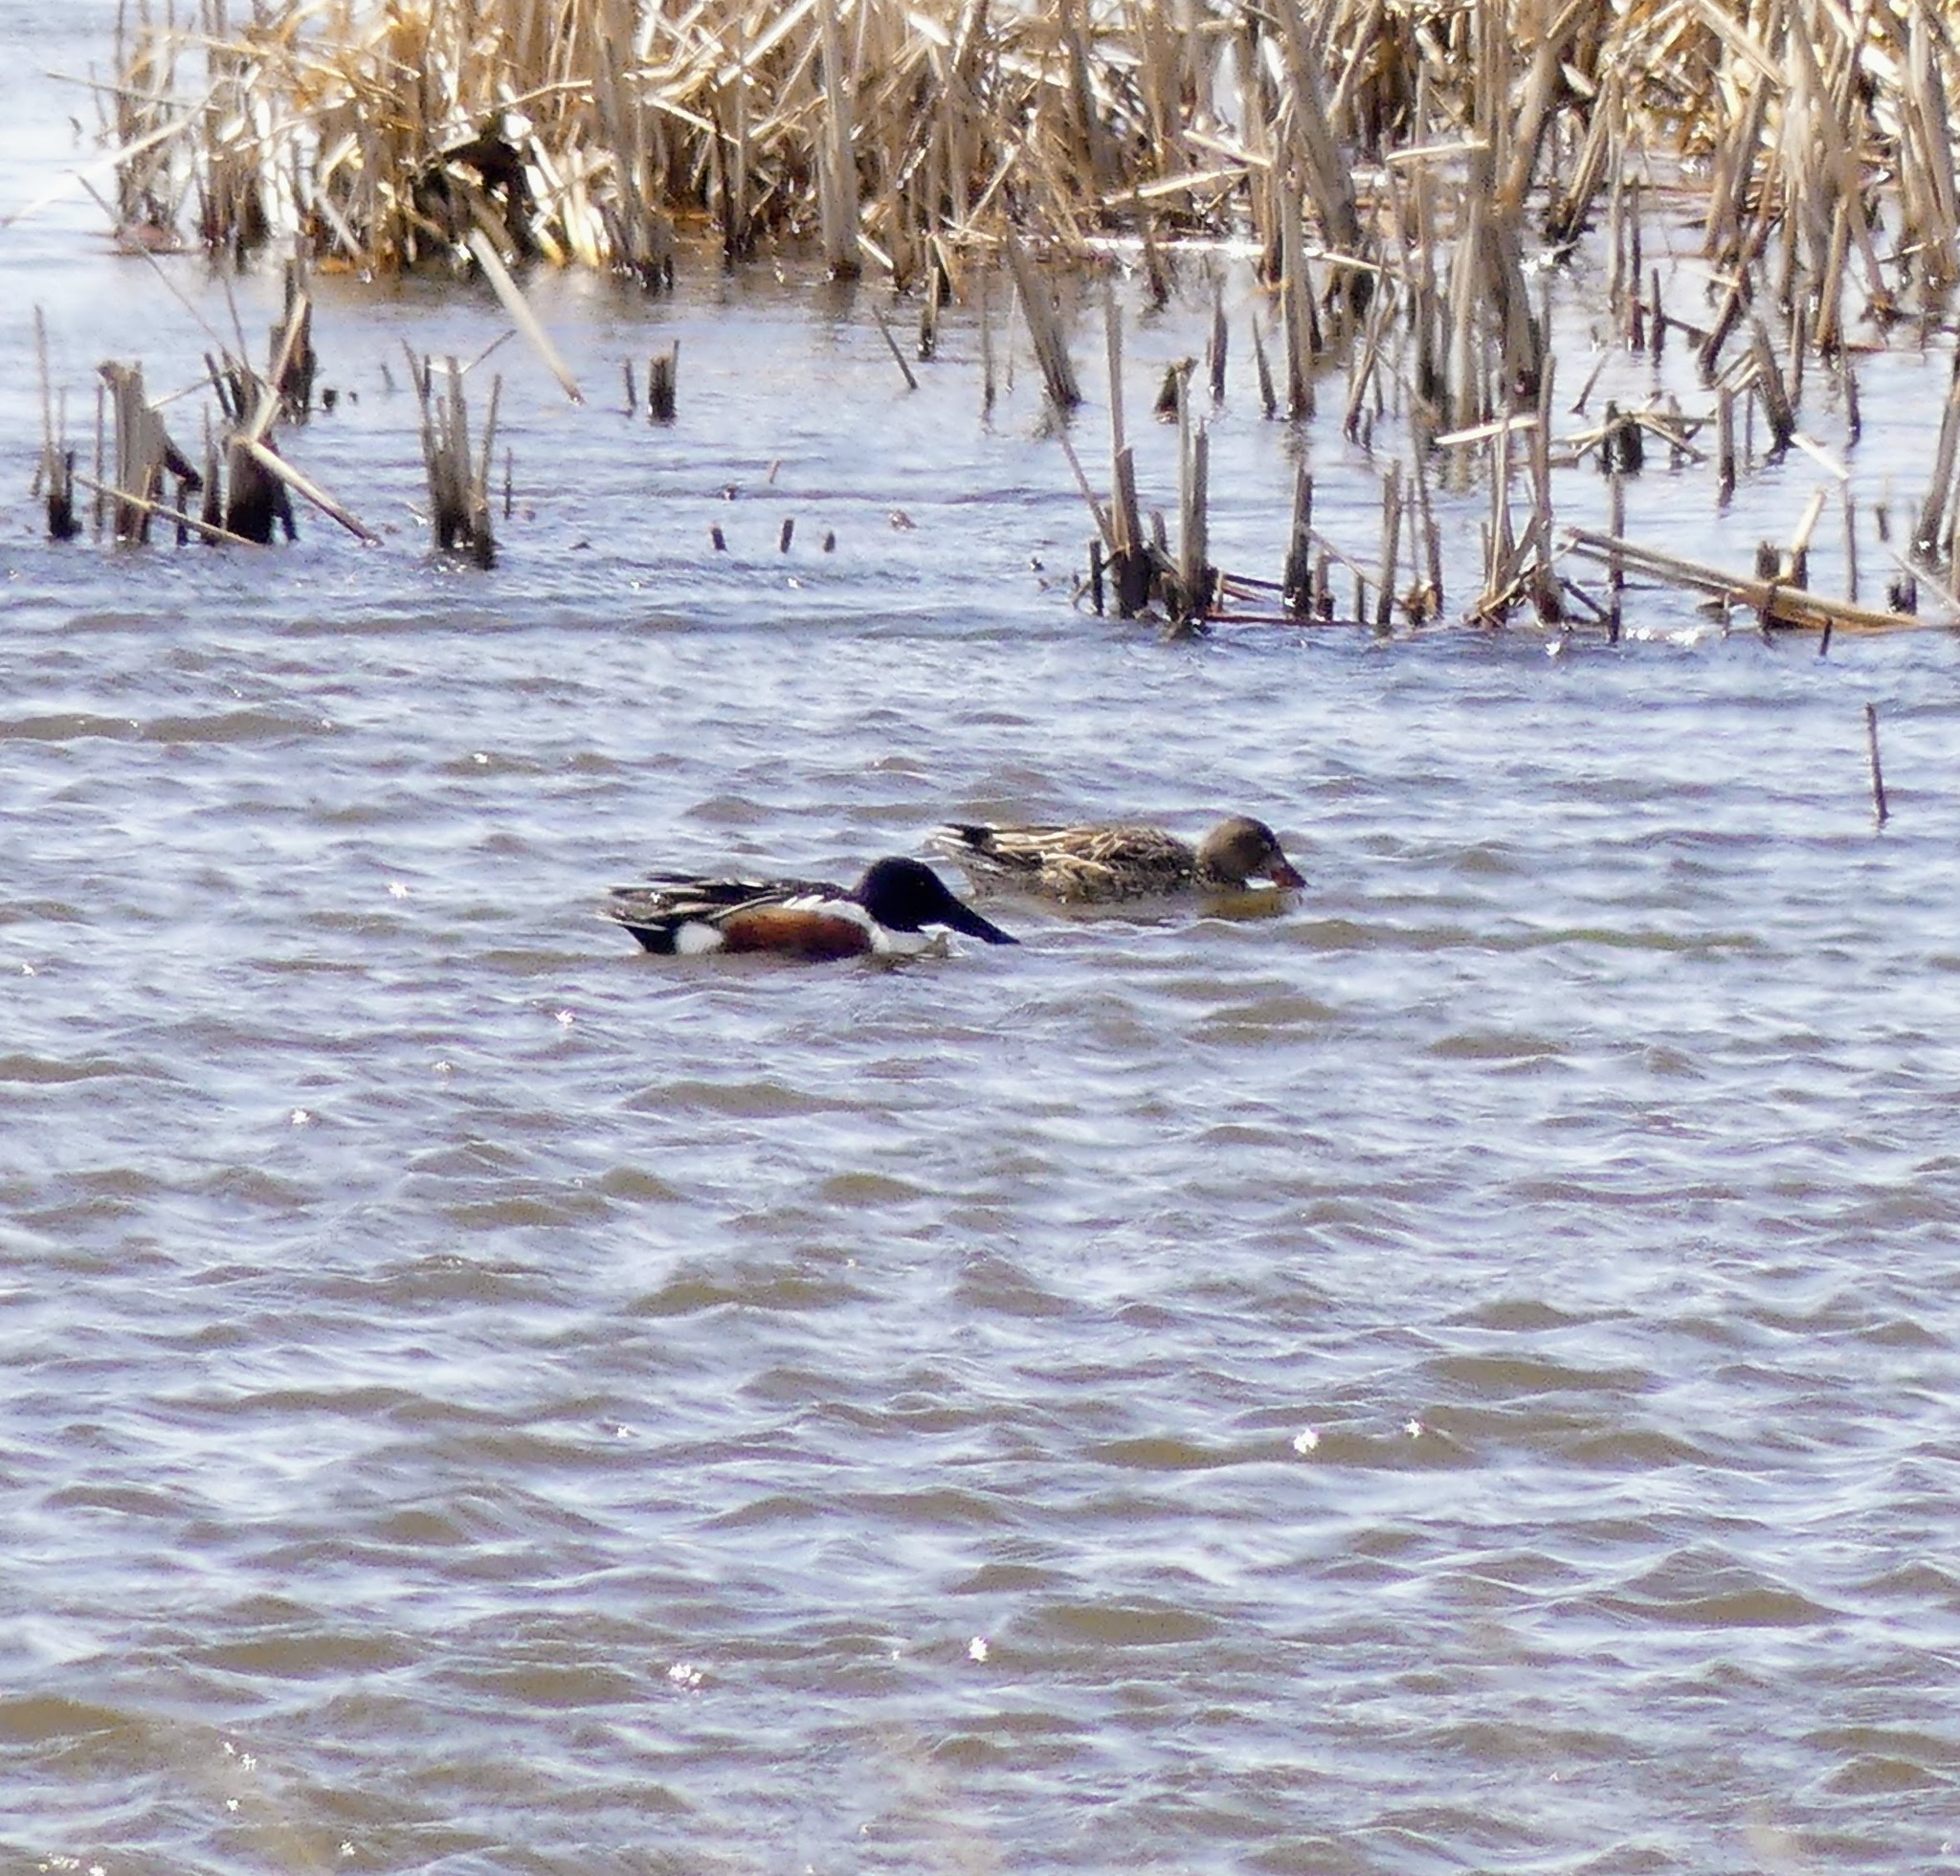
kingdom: Animalia
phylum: Chordata
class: Aves
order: Anseriformes
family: Anatidae
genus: Spatula
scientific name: Spatula clypeata
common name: Northern shoveler
